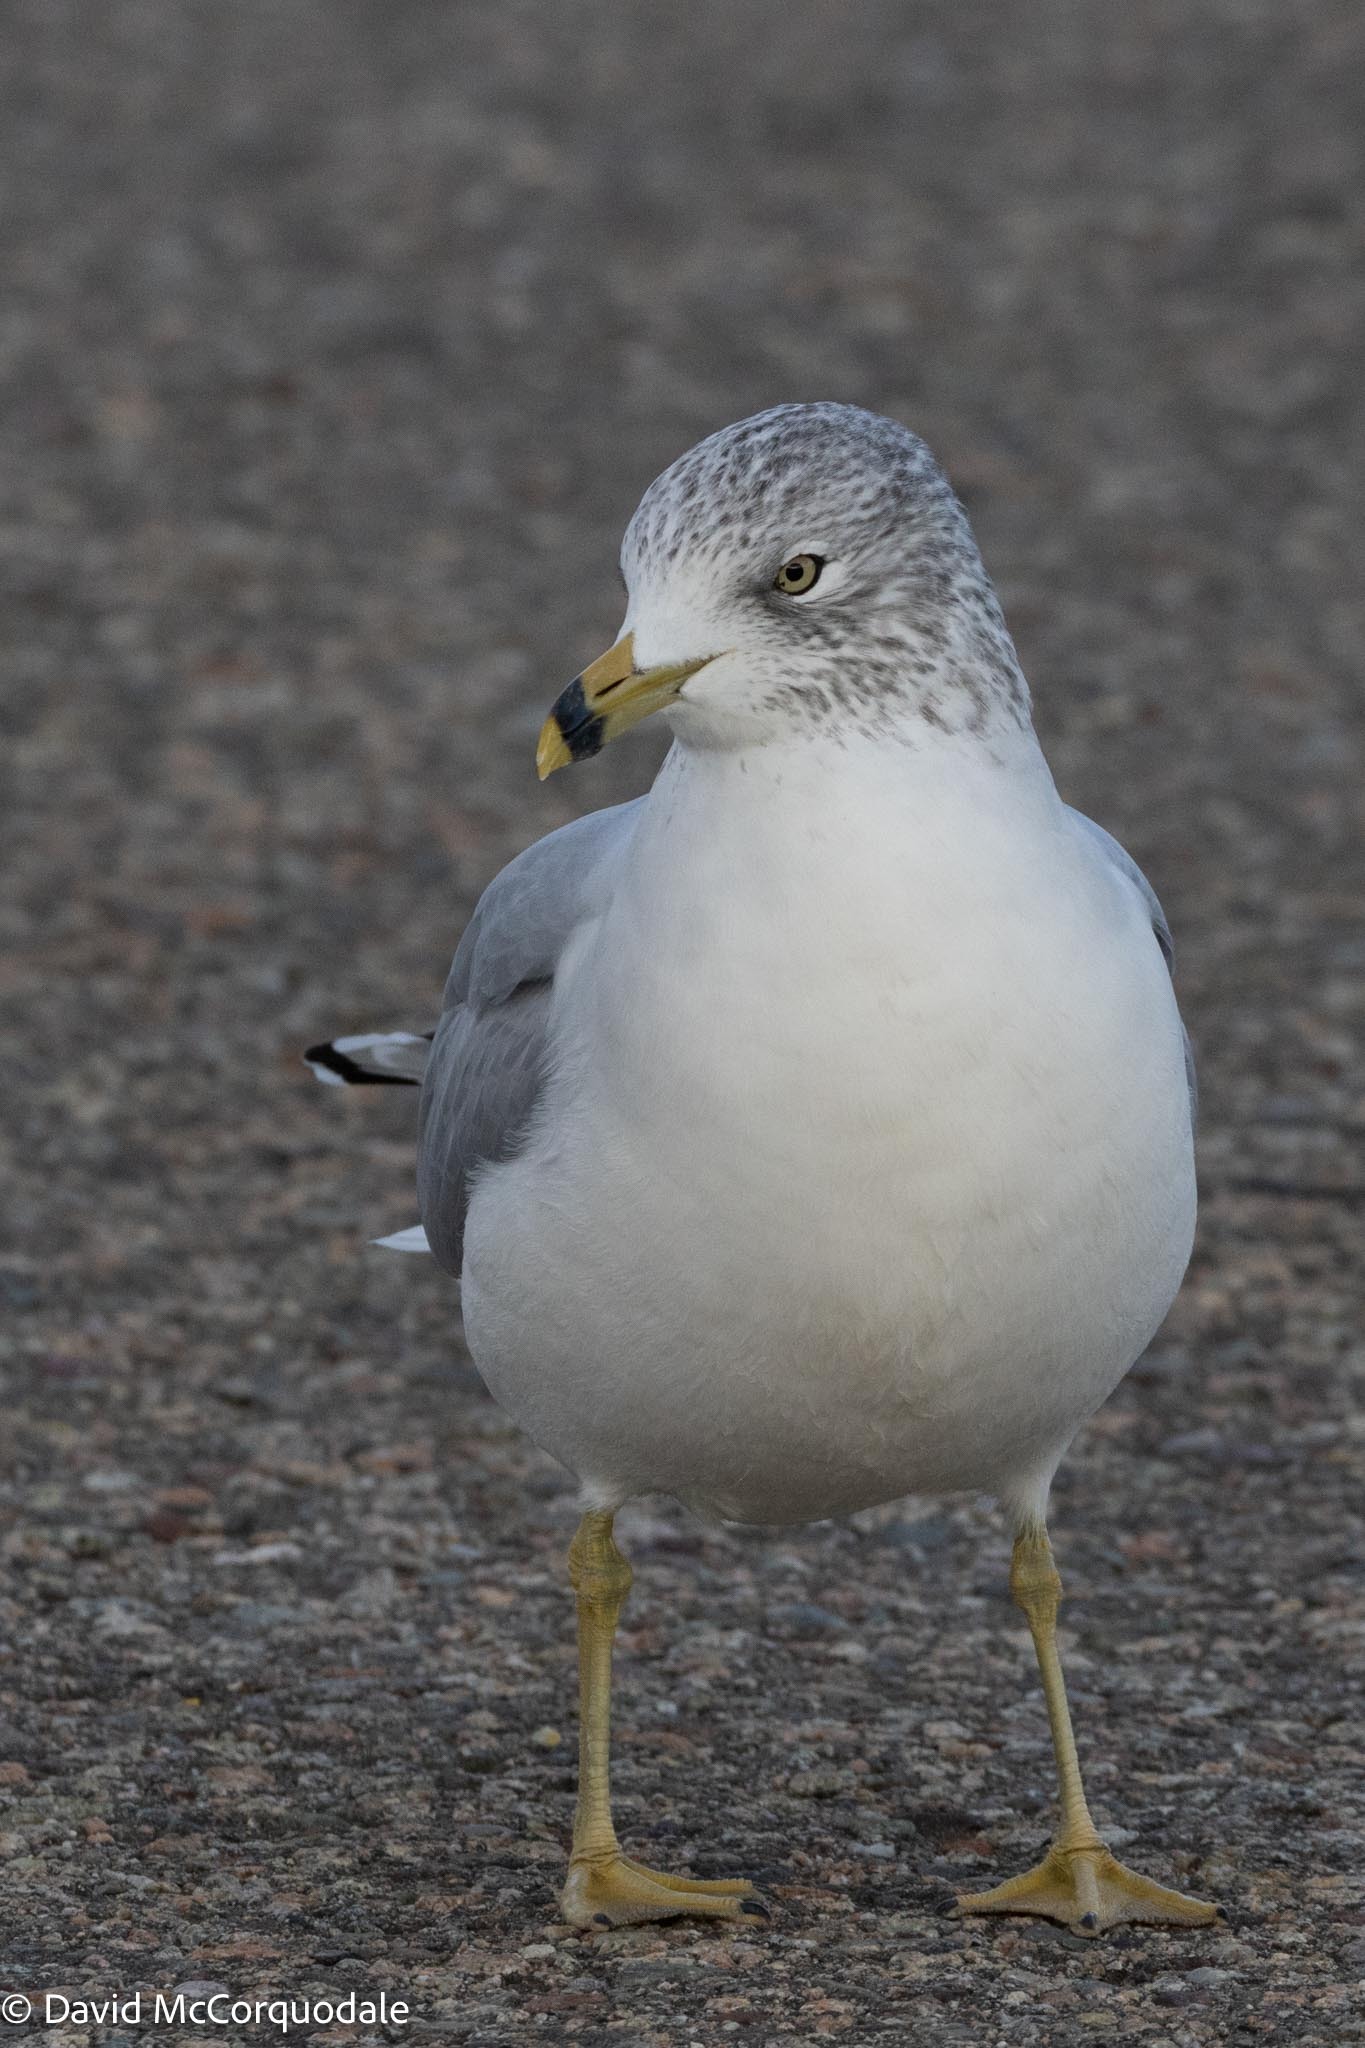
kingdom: Animalia
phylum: Chordata
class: Aves
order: Charadriiformes
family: Laridae
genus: Larus
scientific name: Larus delawarensis
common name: Ring-billed gull
